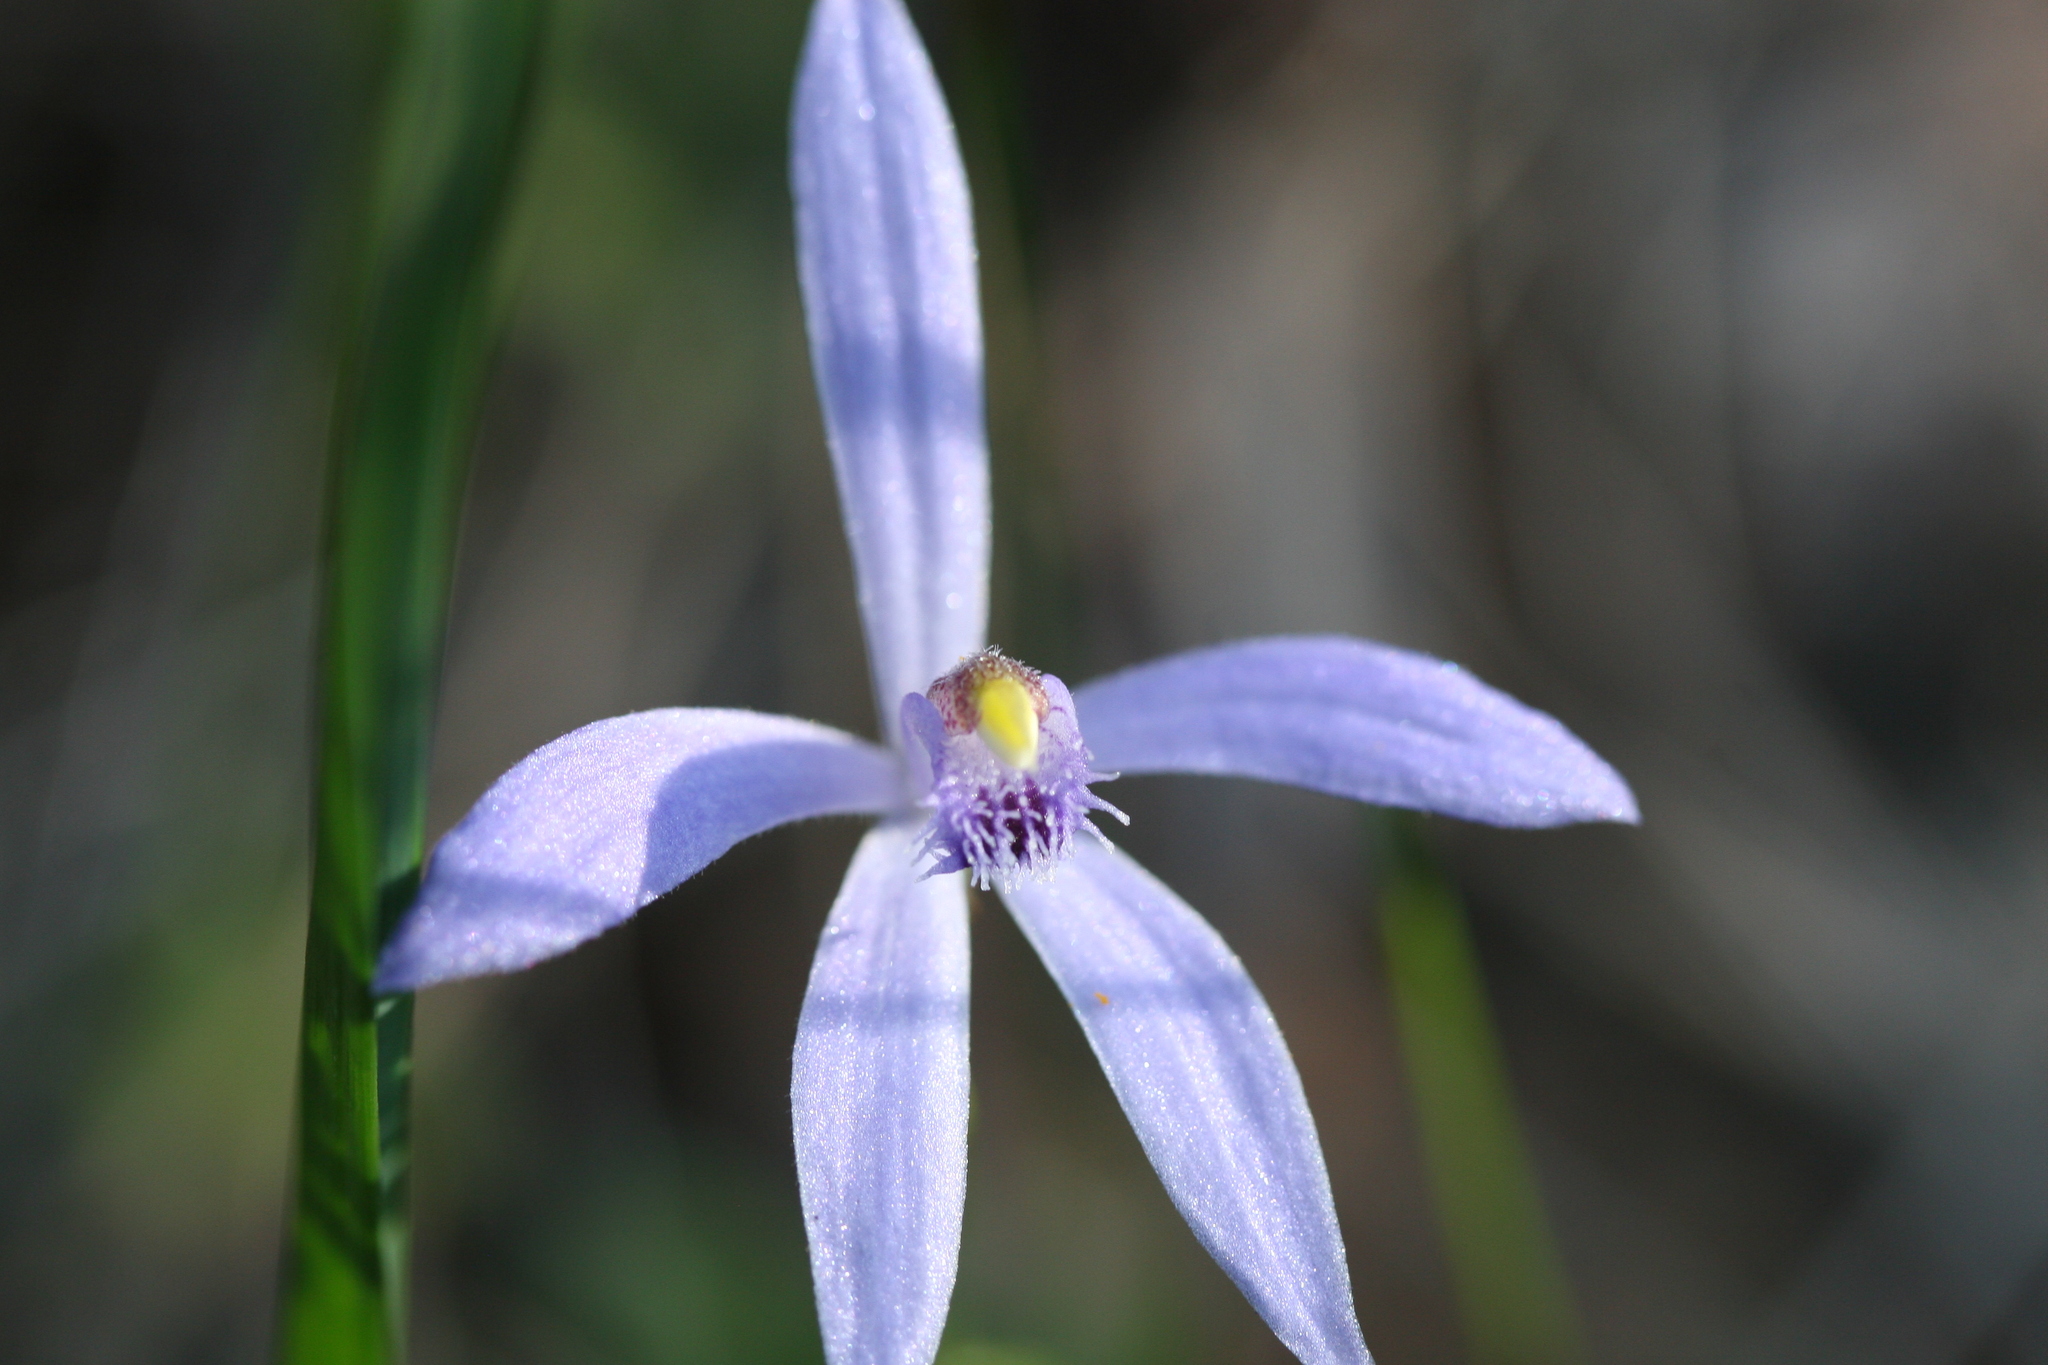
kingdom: Plantae
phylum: Tracheophyta
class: Liliopsida
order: Asparagales
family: Orchidaceae
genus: Pheladenia
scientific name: Pheladenia deformis
